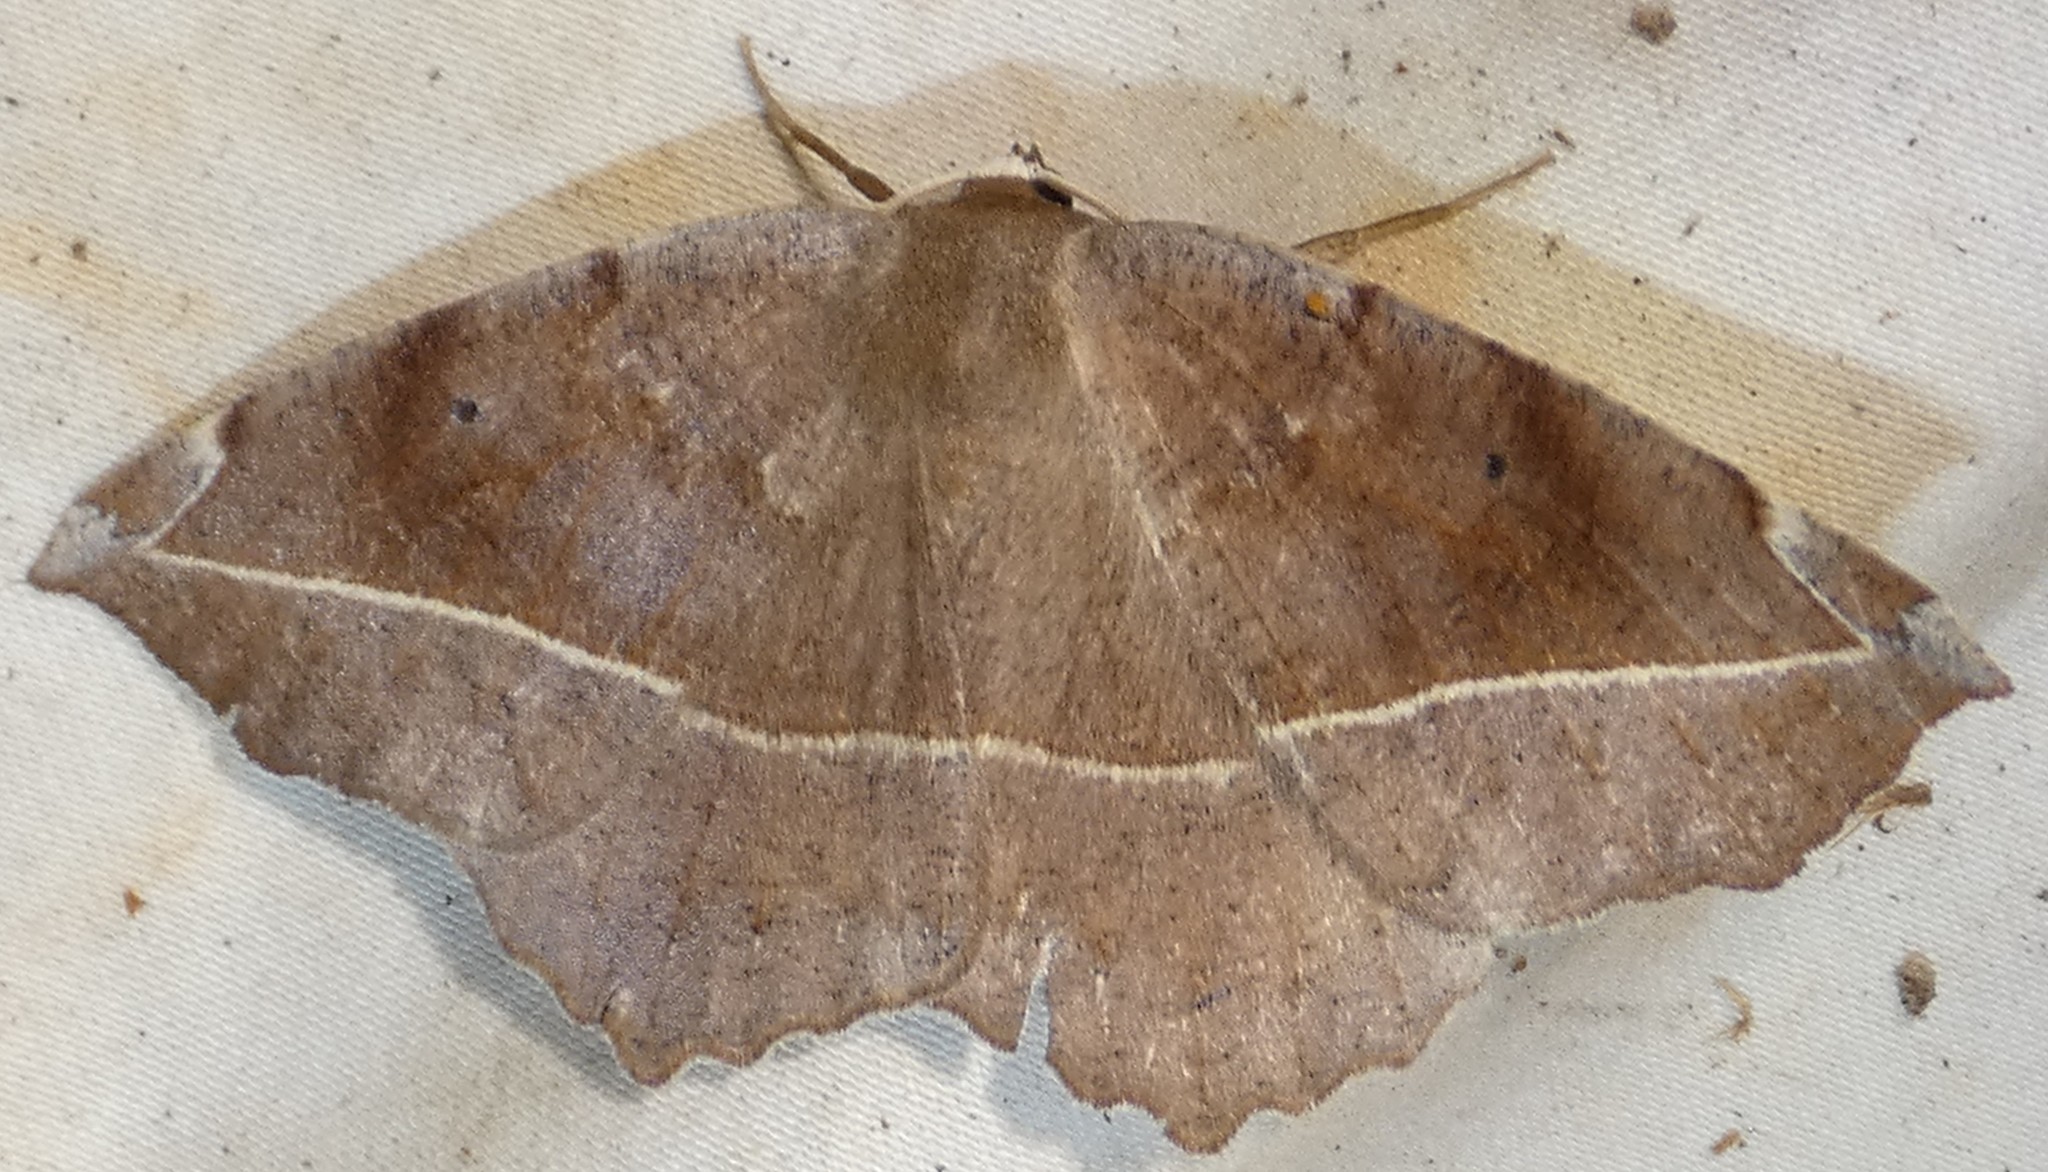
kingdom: Animalia
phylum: Arthropoda
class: Insecta
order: Lepidoptera
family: Geometridae
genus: Eutrapela
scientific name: Eutrapela clemataria
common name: Curved-toothed geometer
